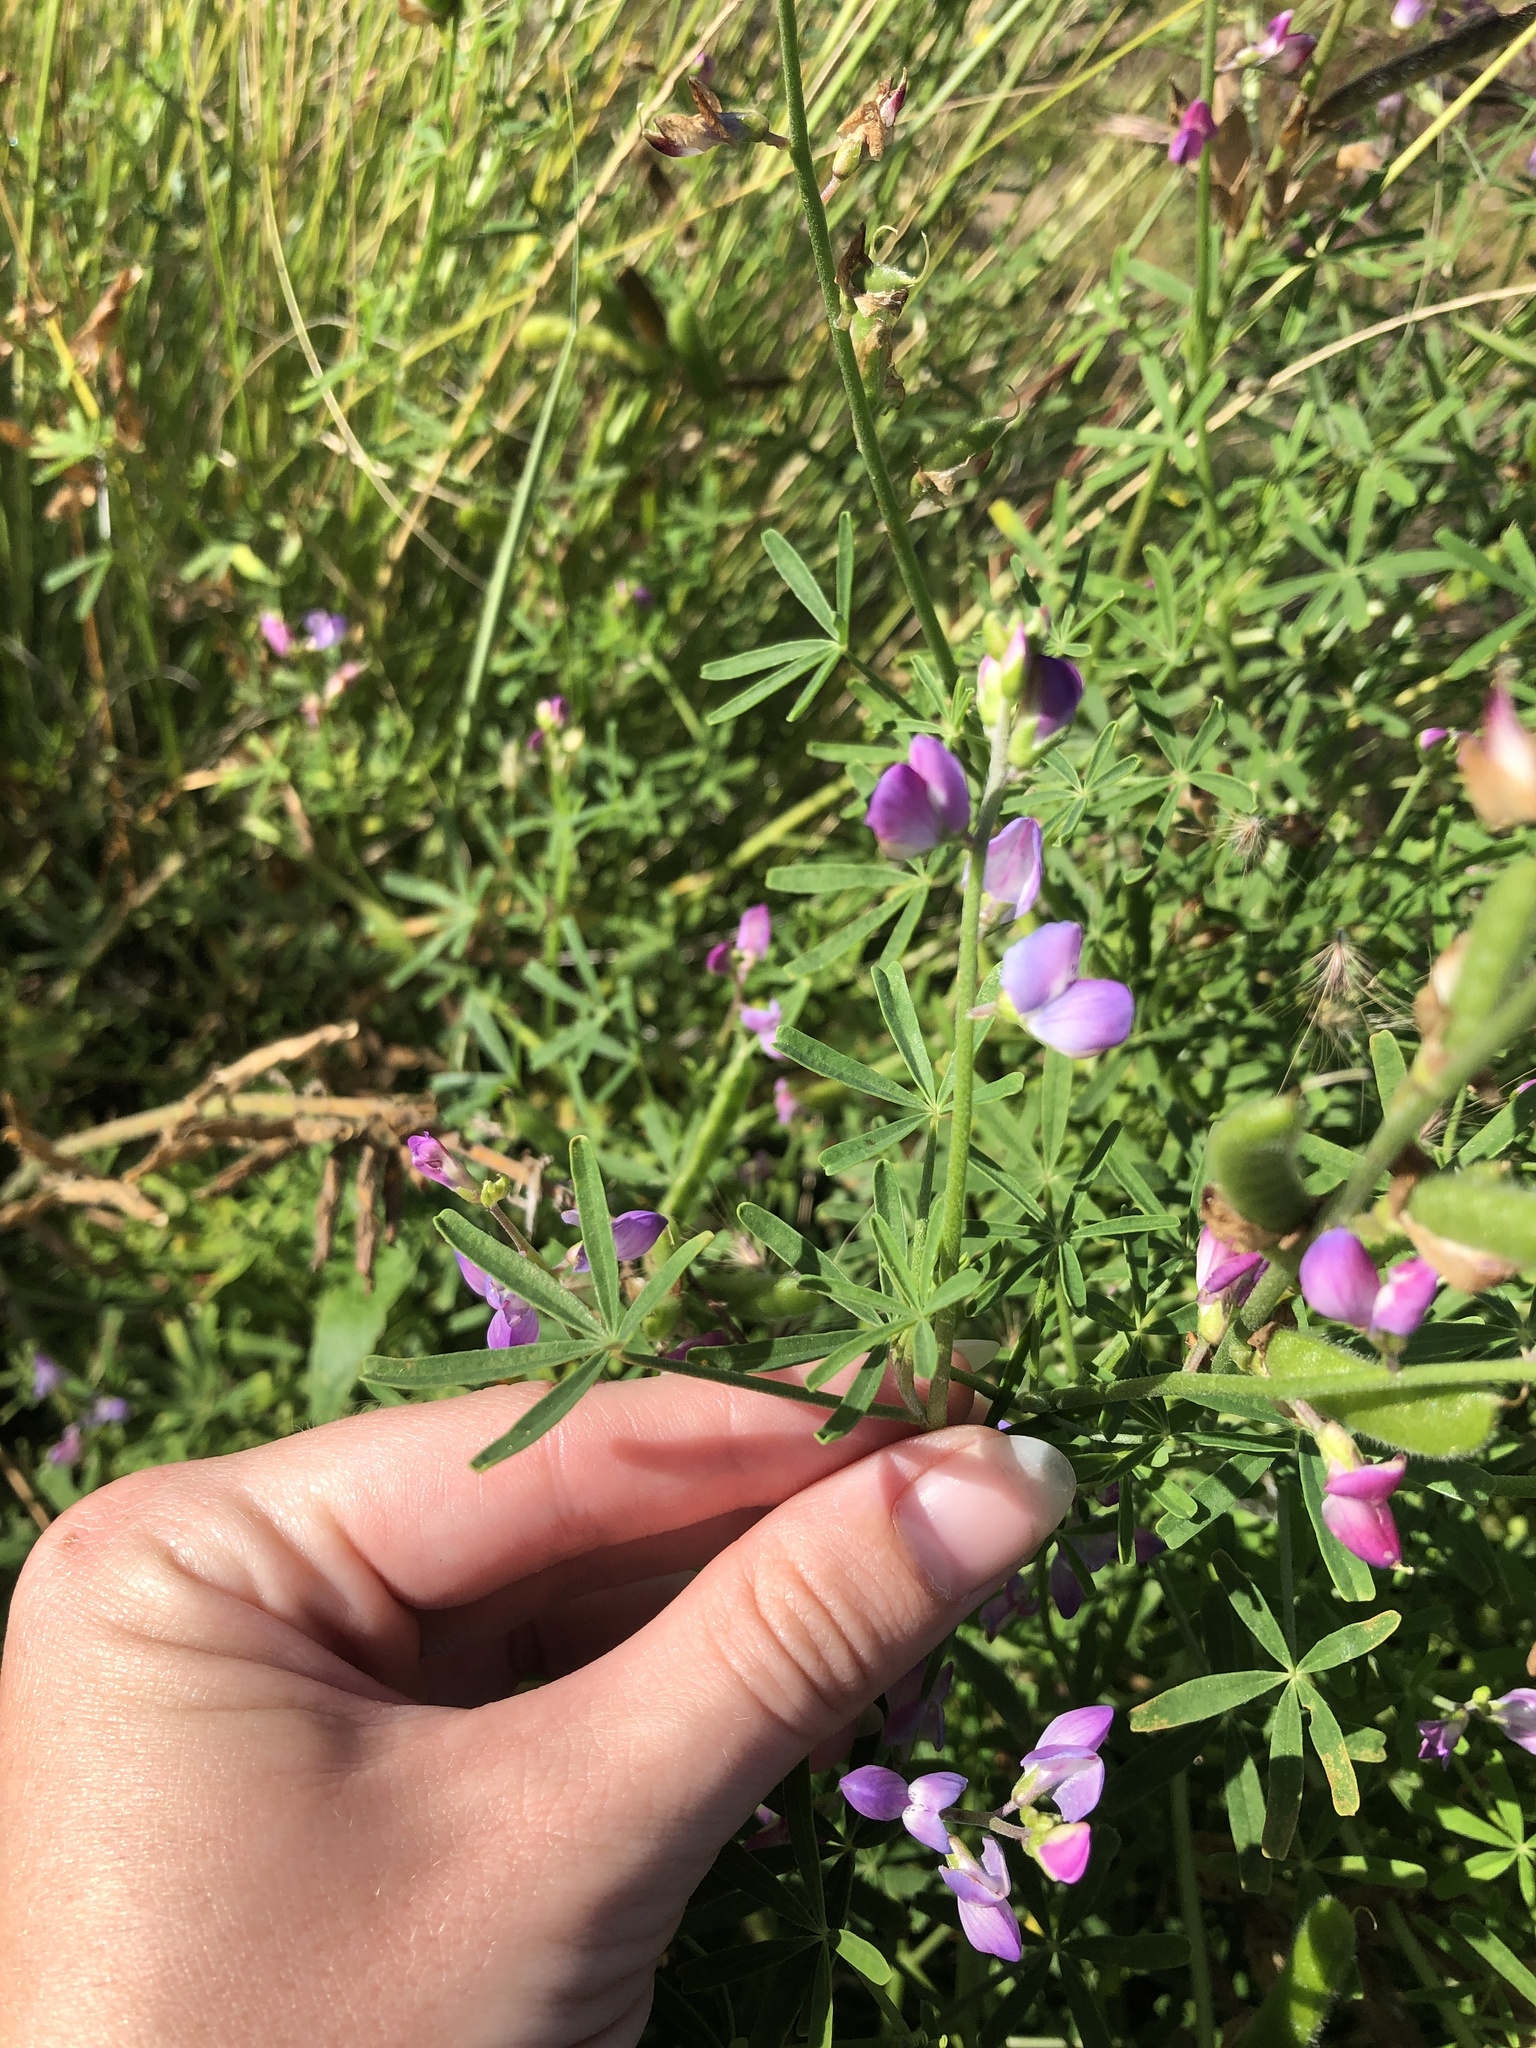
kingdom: Plantae
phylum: Tracheophyta
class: Magnoliopsida
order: Fabales
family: Fabaceae
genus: Lupinus
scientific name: Lupinus truncatus
